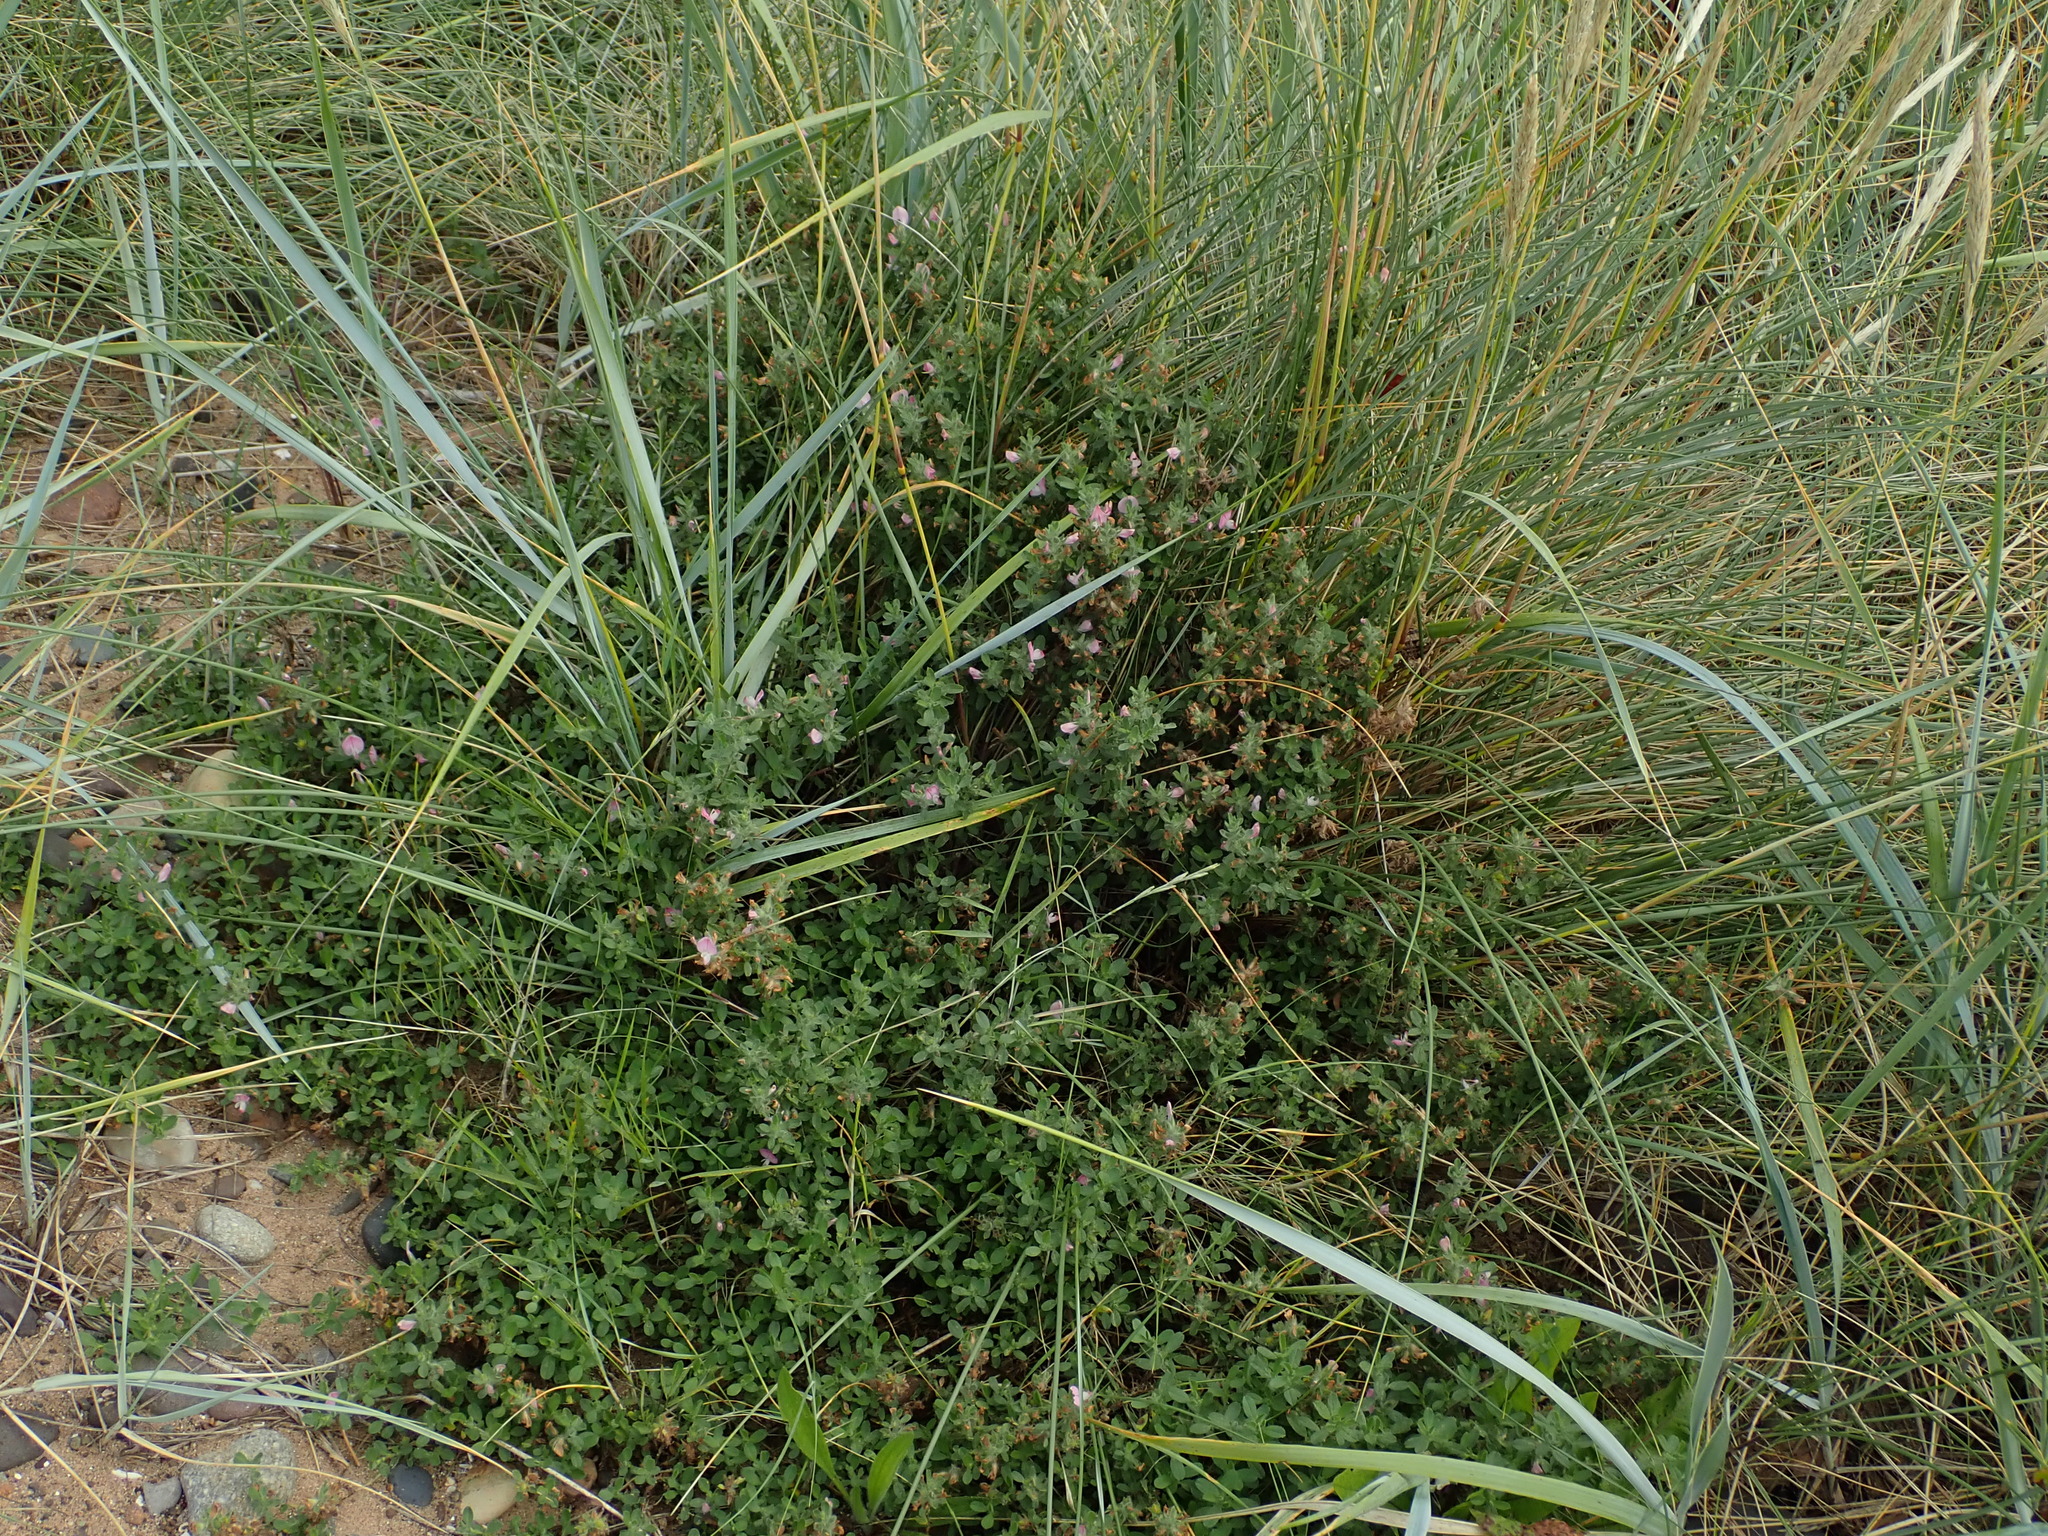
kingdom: Plantae
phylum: Tracheophyta
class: Magnoliopsida
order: Fabales
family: Fabaceae
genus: Ononis
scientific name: Ononis spinosa
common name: Spiny restharrow
